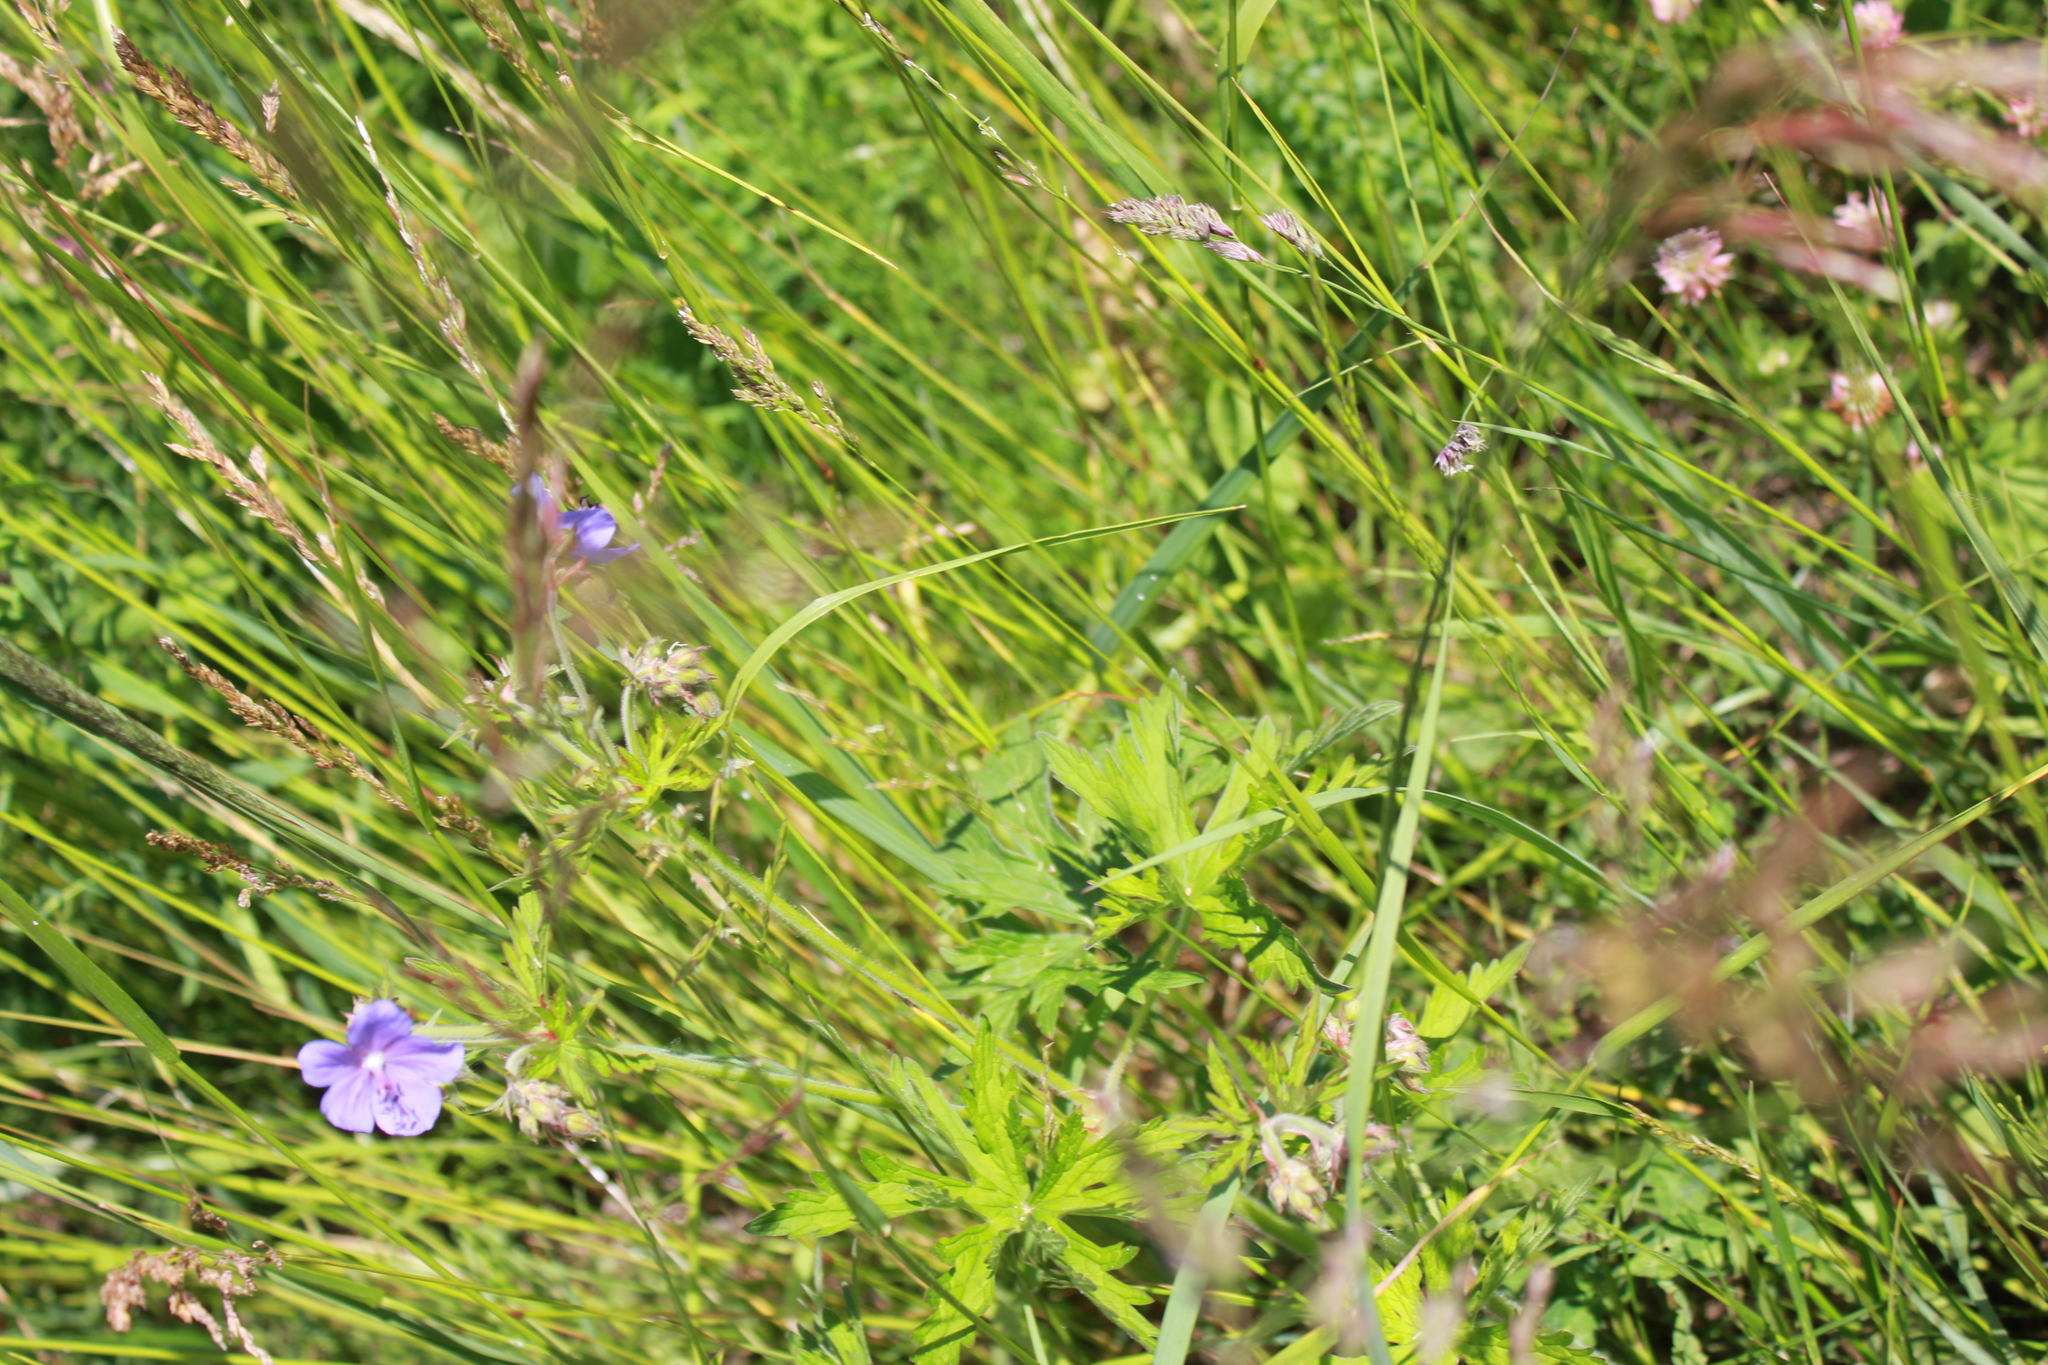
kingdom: Plantae
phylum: Tracheophyta
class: Magnoliopsida
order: Geraniales
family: Geraniaceae
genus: Geranium
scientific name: Geranium pratense
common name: Meadow crane's-bill
